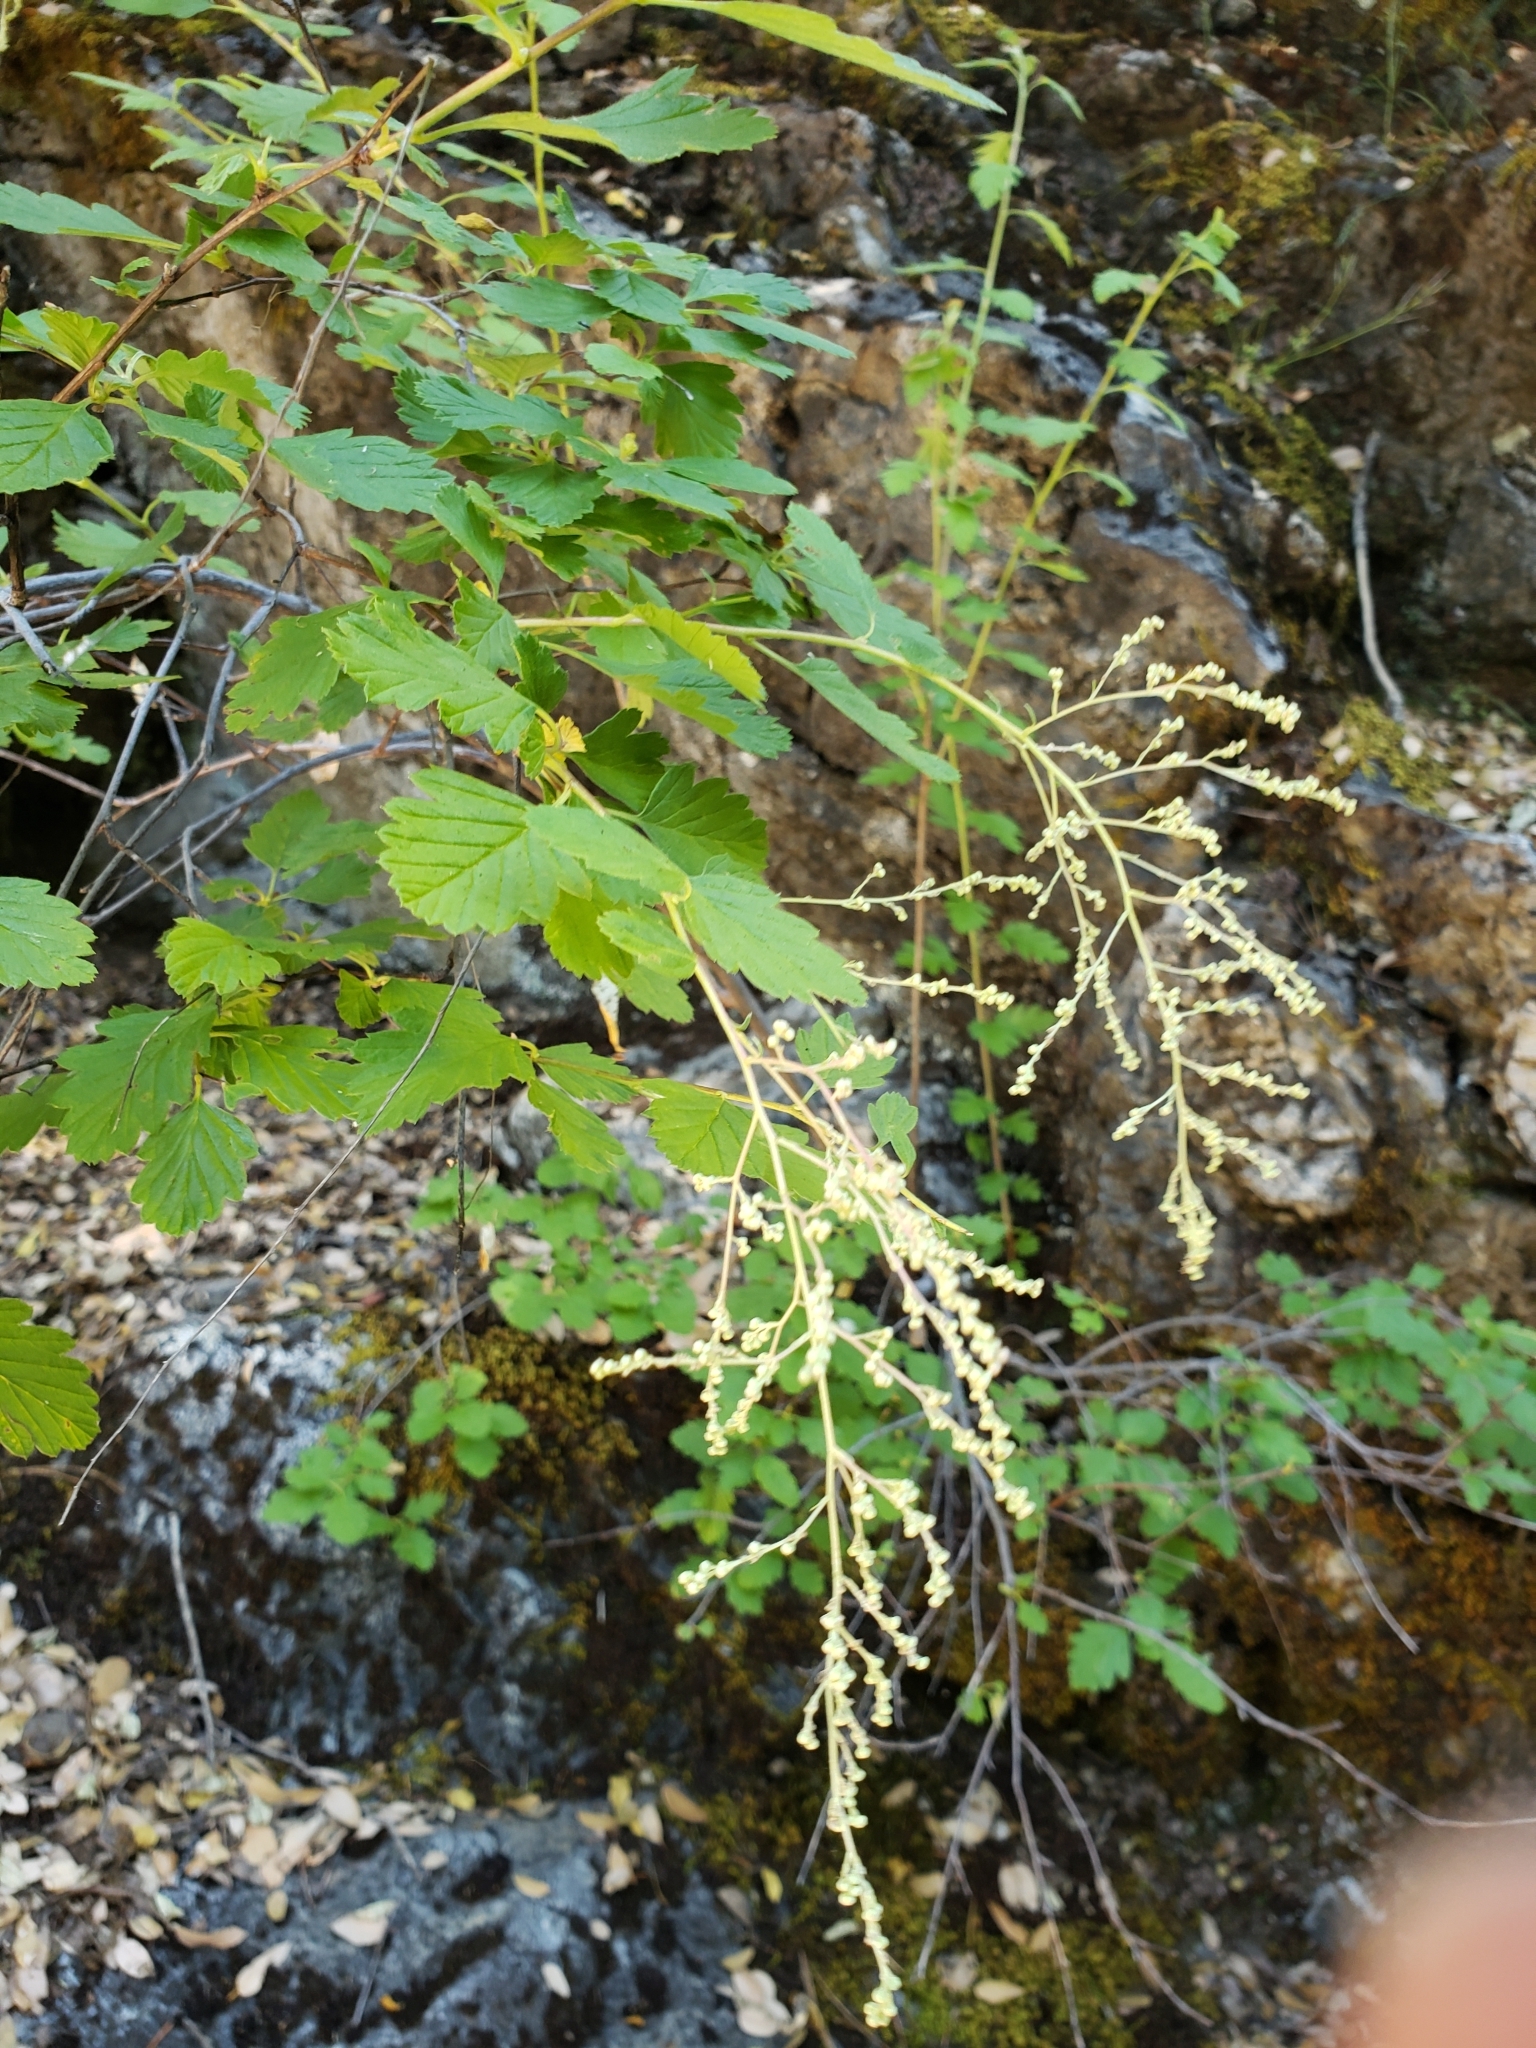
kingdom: Plantae
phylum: Tracheophyta
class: Magnoliopsida
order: Rosales
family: Rosaceae
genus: Holodiscus
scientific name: Holodiscus discolor
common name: Oceanspray
